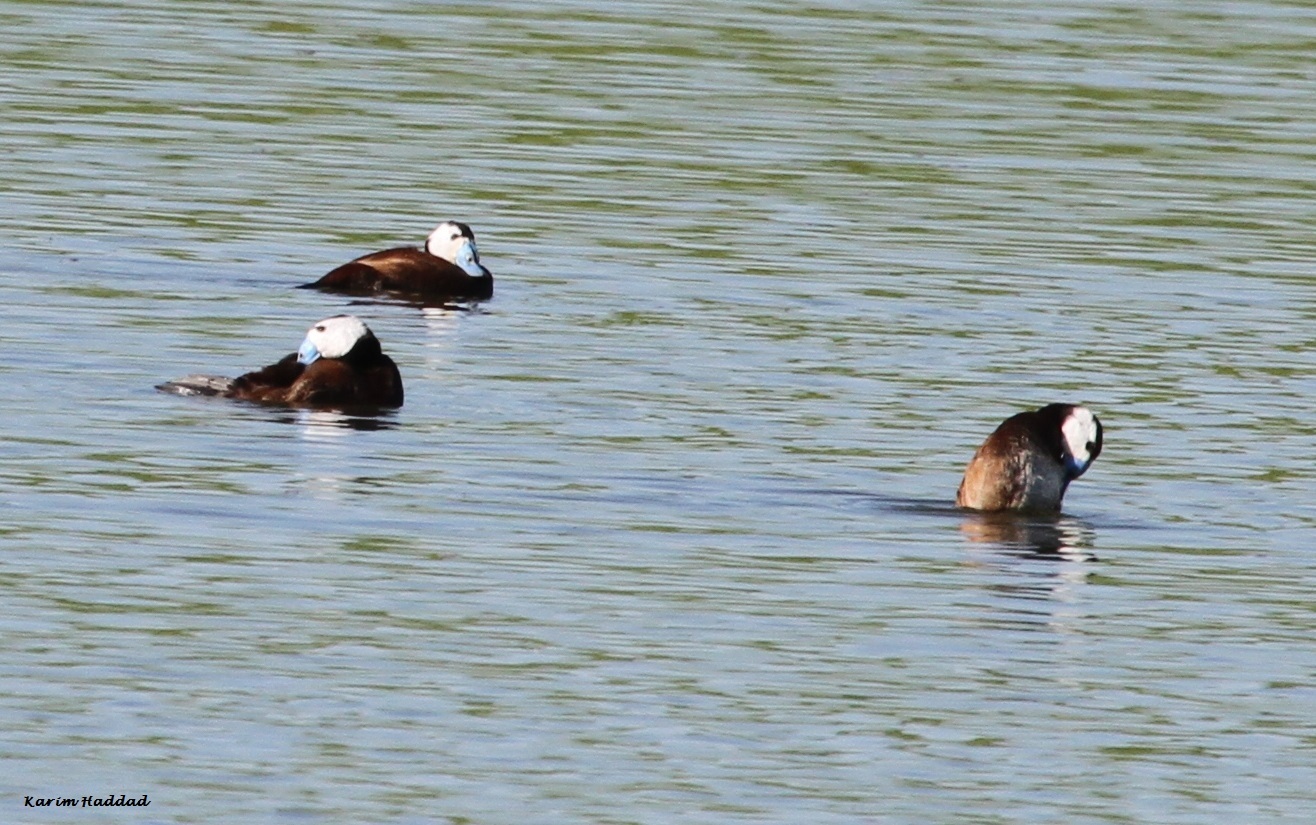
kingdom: Animalia
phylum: Chordata
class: Aves
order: Anseriformes
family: Anatidae
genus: Oxyura
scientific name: Oxyura leucocephala
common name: White-headed duck
